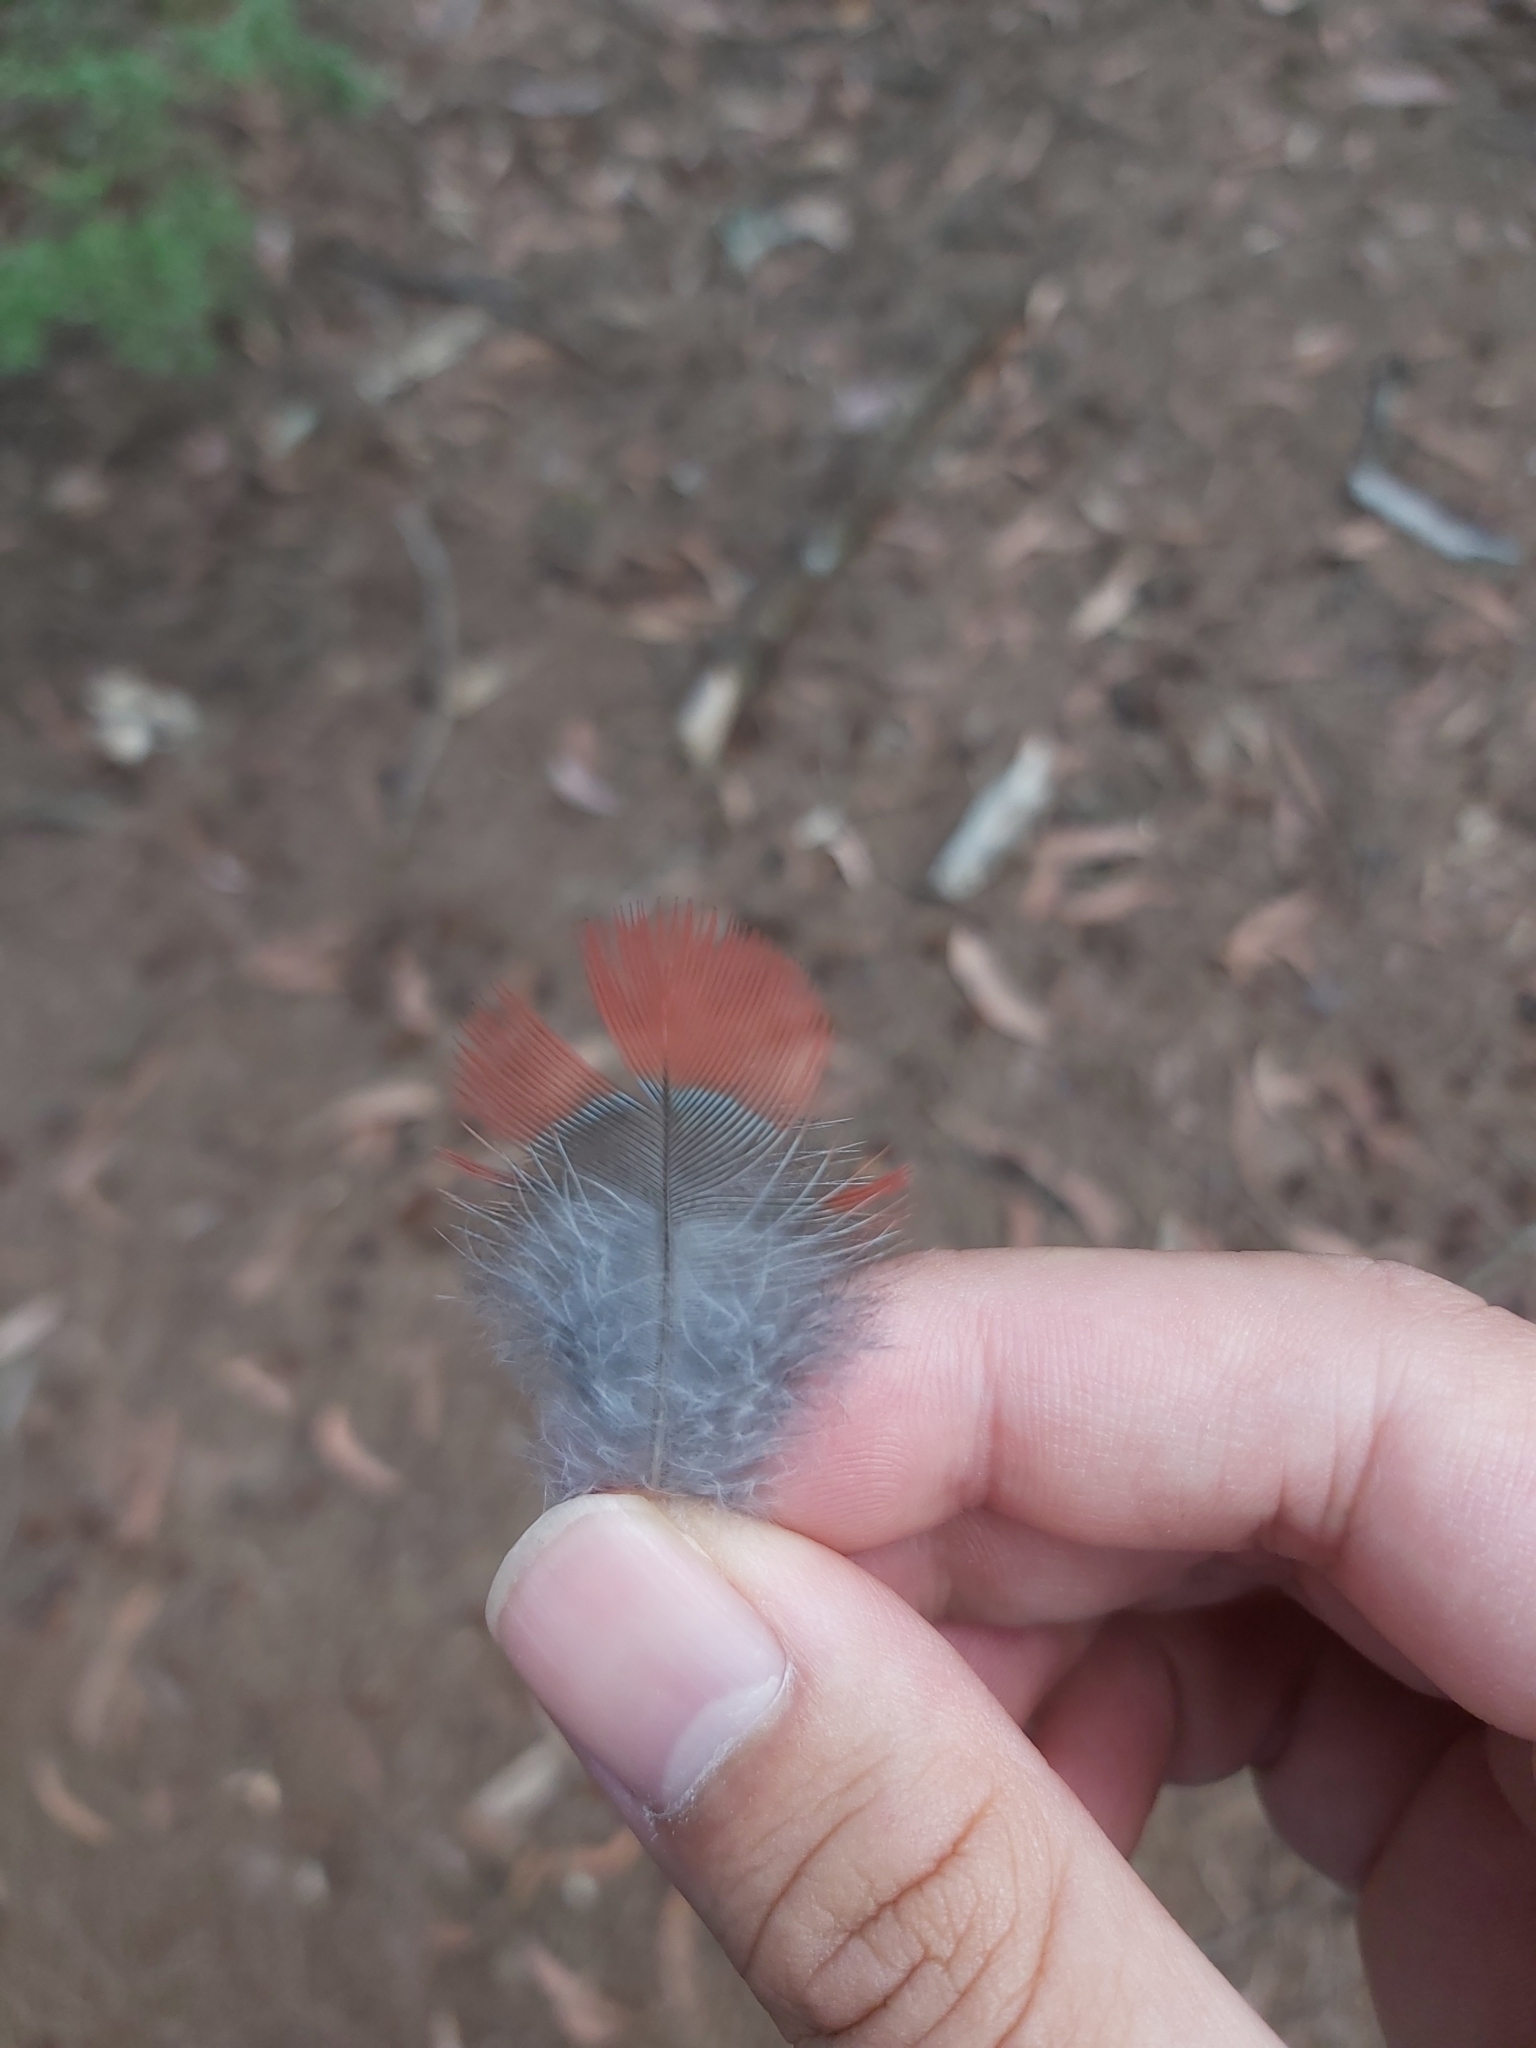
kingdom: Animalia
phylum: Chordata
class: Aves
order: Psittaciformes
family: Psittacidae
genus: Platycercus
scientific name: Platycercus elegans
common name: Crimson rosella
